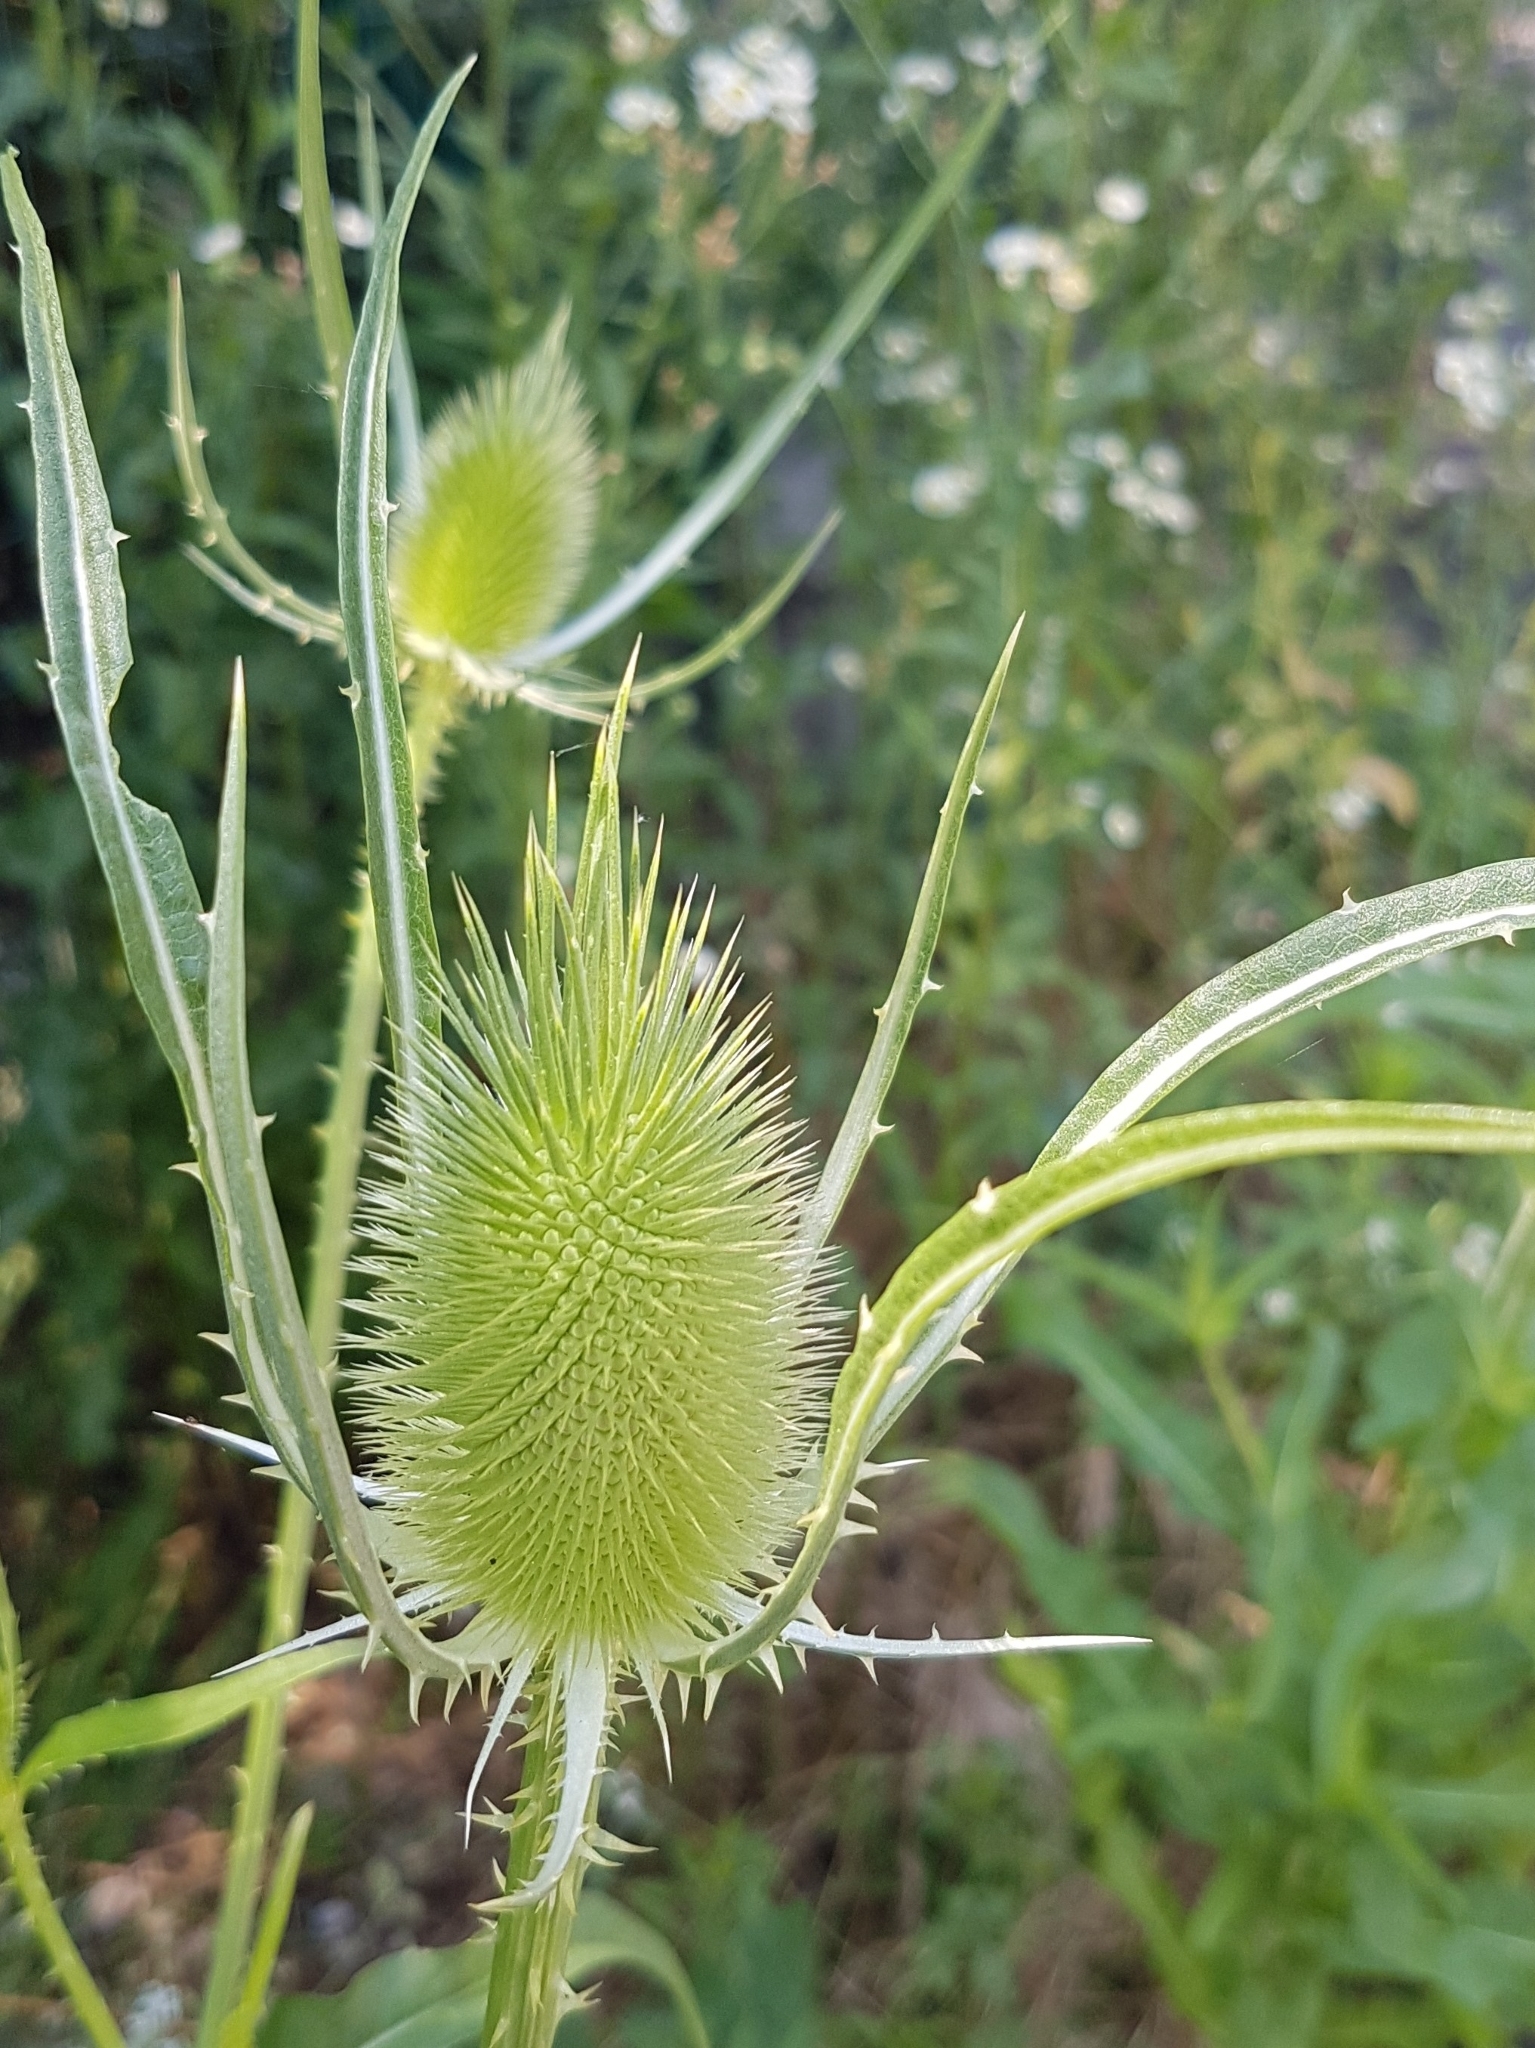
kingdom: Plantae
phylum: Tracheophyta
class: Magnoliopsida
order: Dipsacales
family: Caprifoliaceae
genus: Dipsacus
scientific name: Dipsacus fullonum
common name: Teasel
